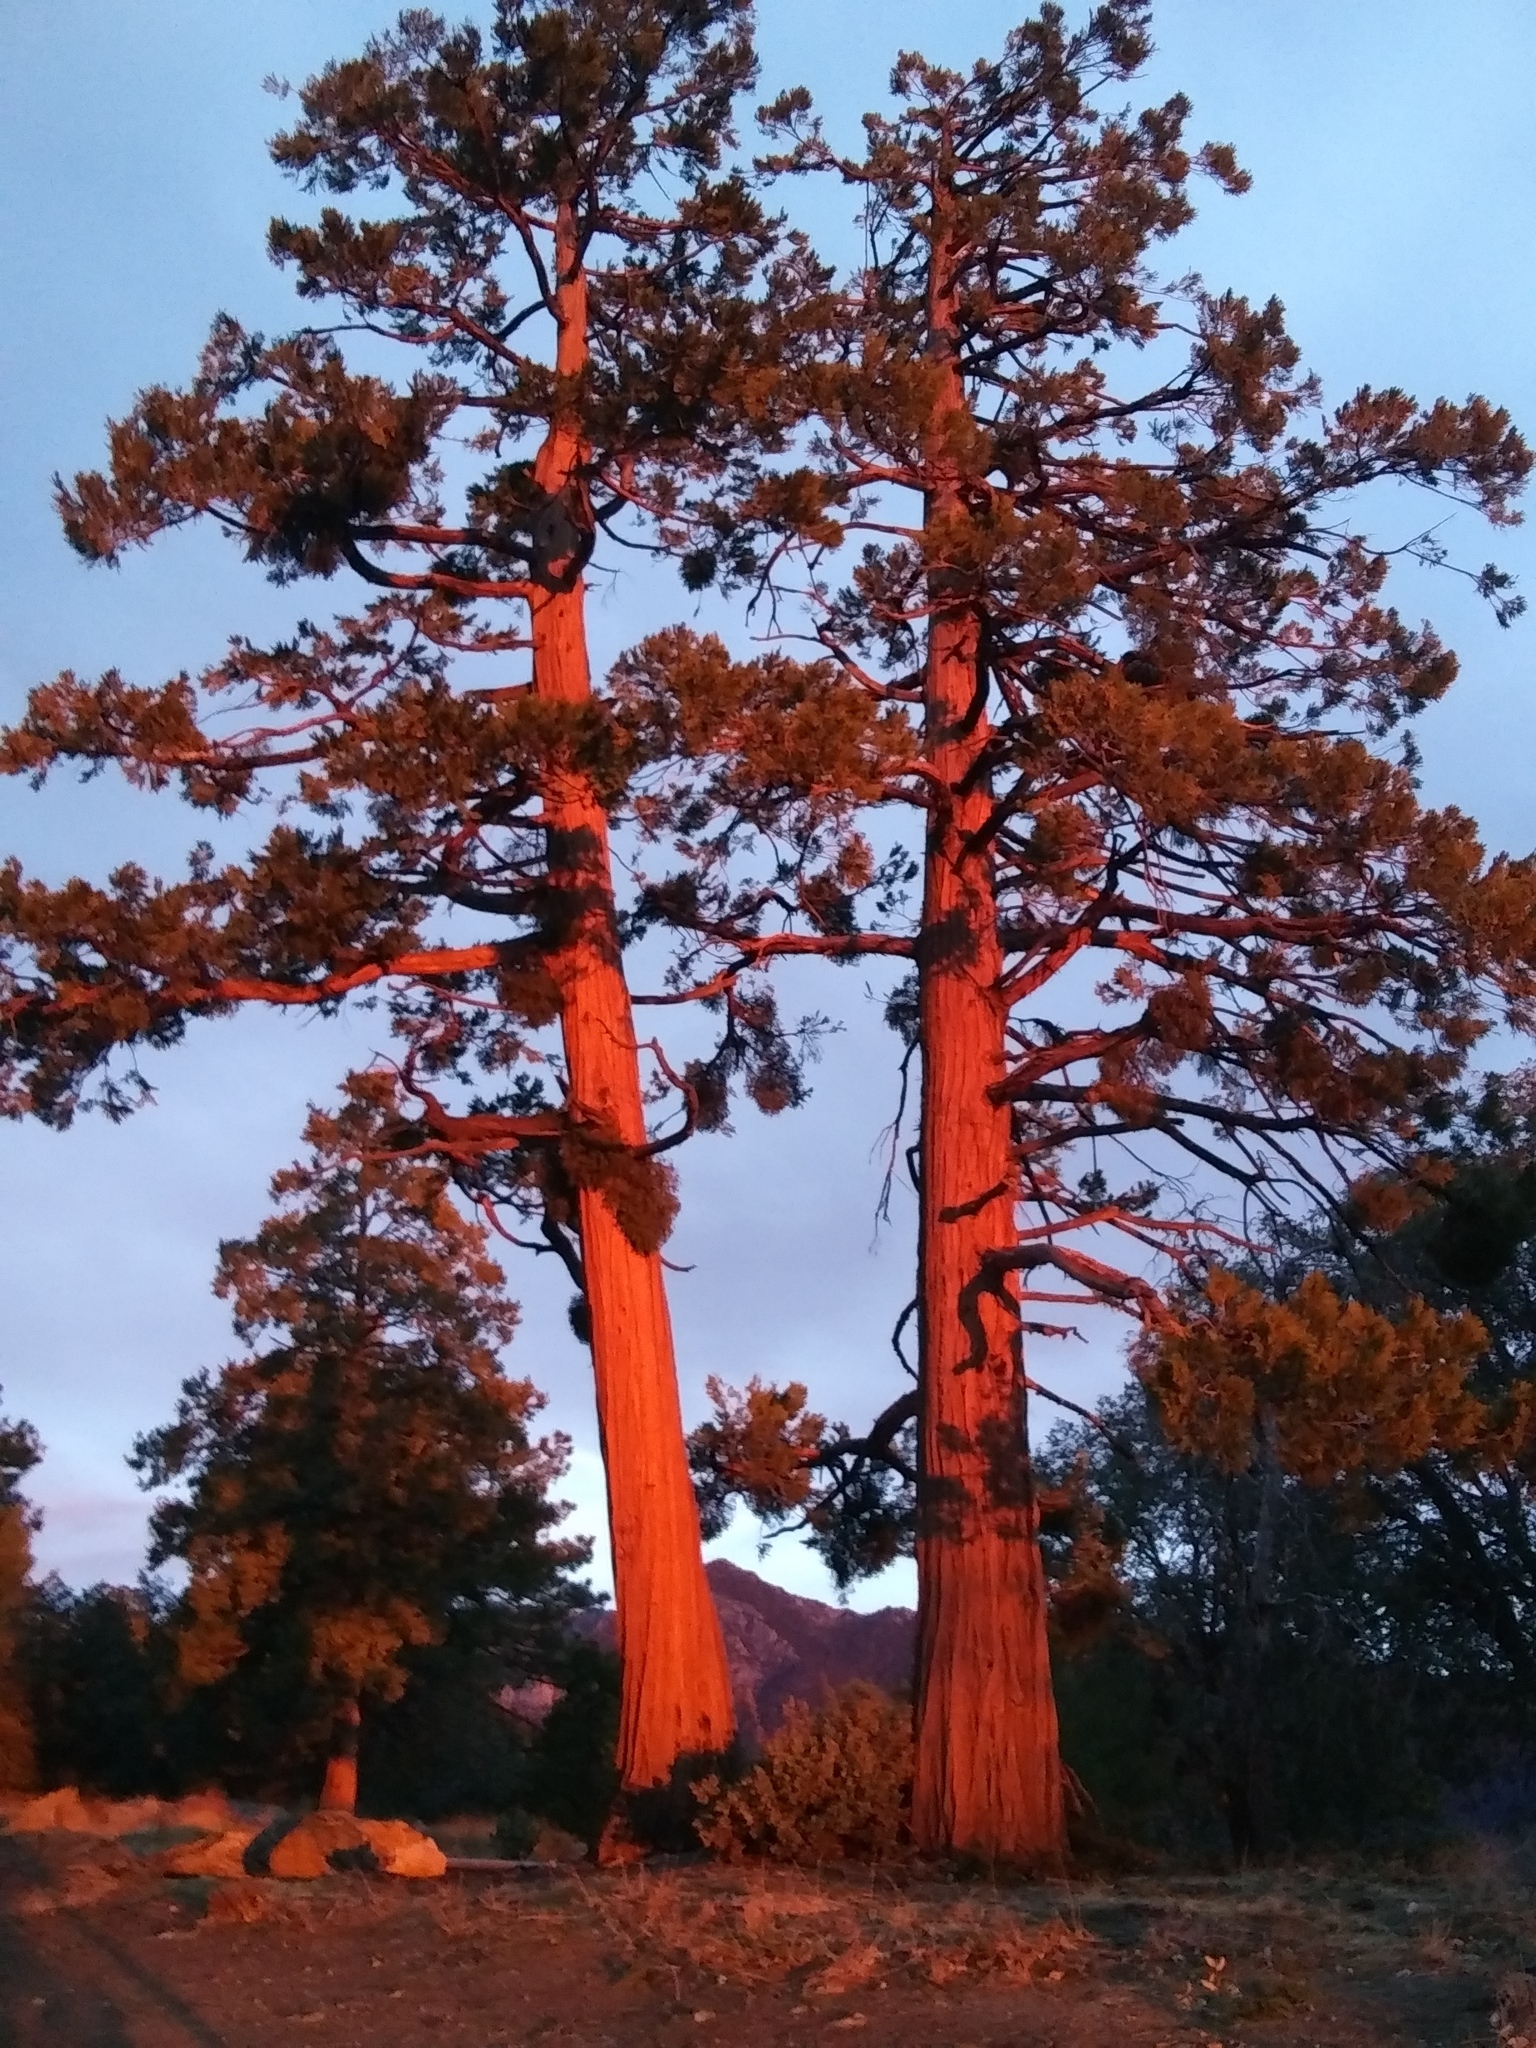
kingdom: Plantae
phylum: Tracheophyta
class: Pinopsida
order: Pinales
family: Cupressaceae
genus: Calocedrus
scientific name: Calocedrus decurrens
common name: Californian incense-cedar
